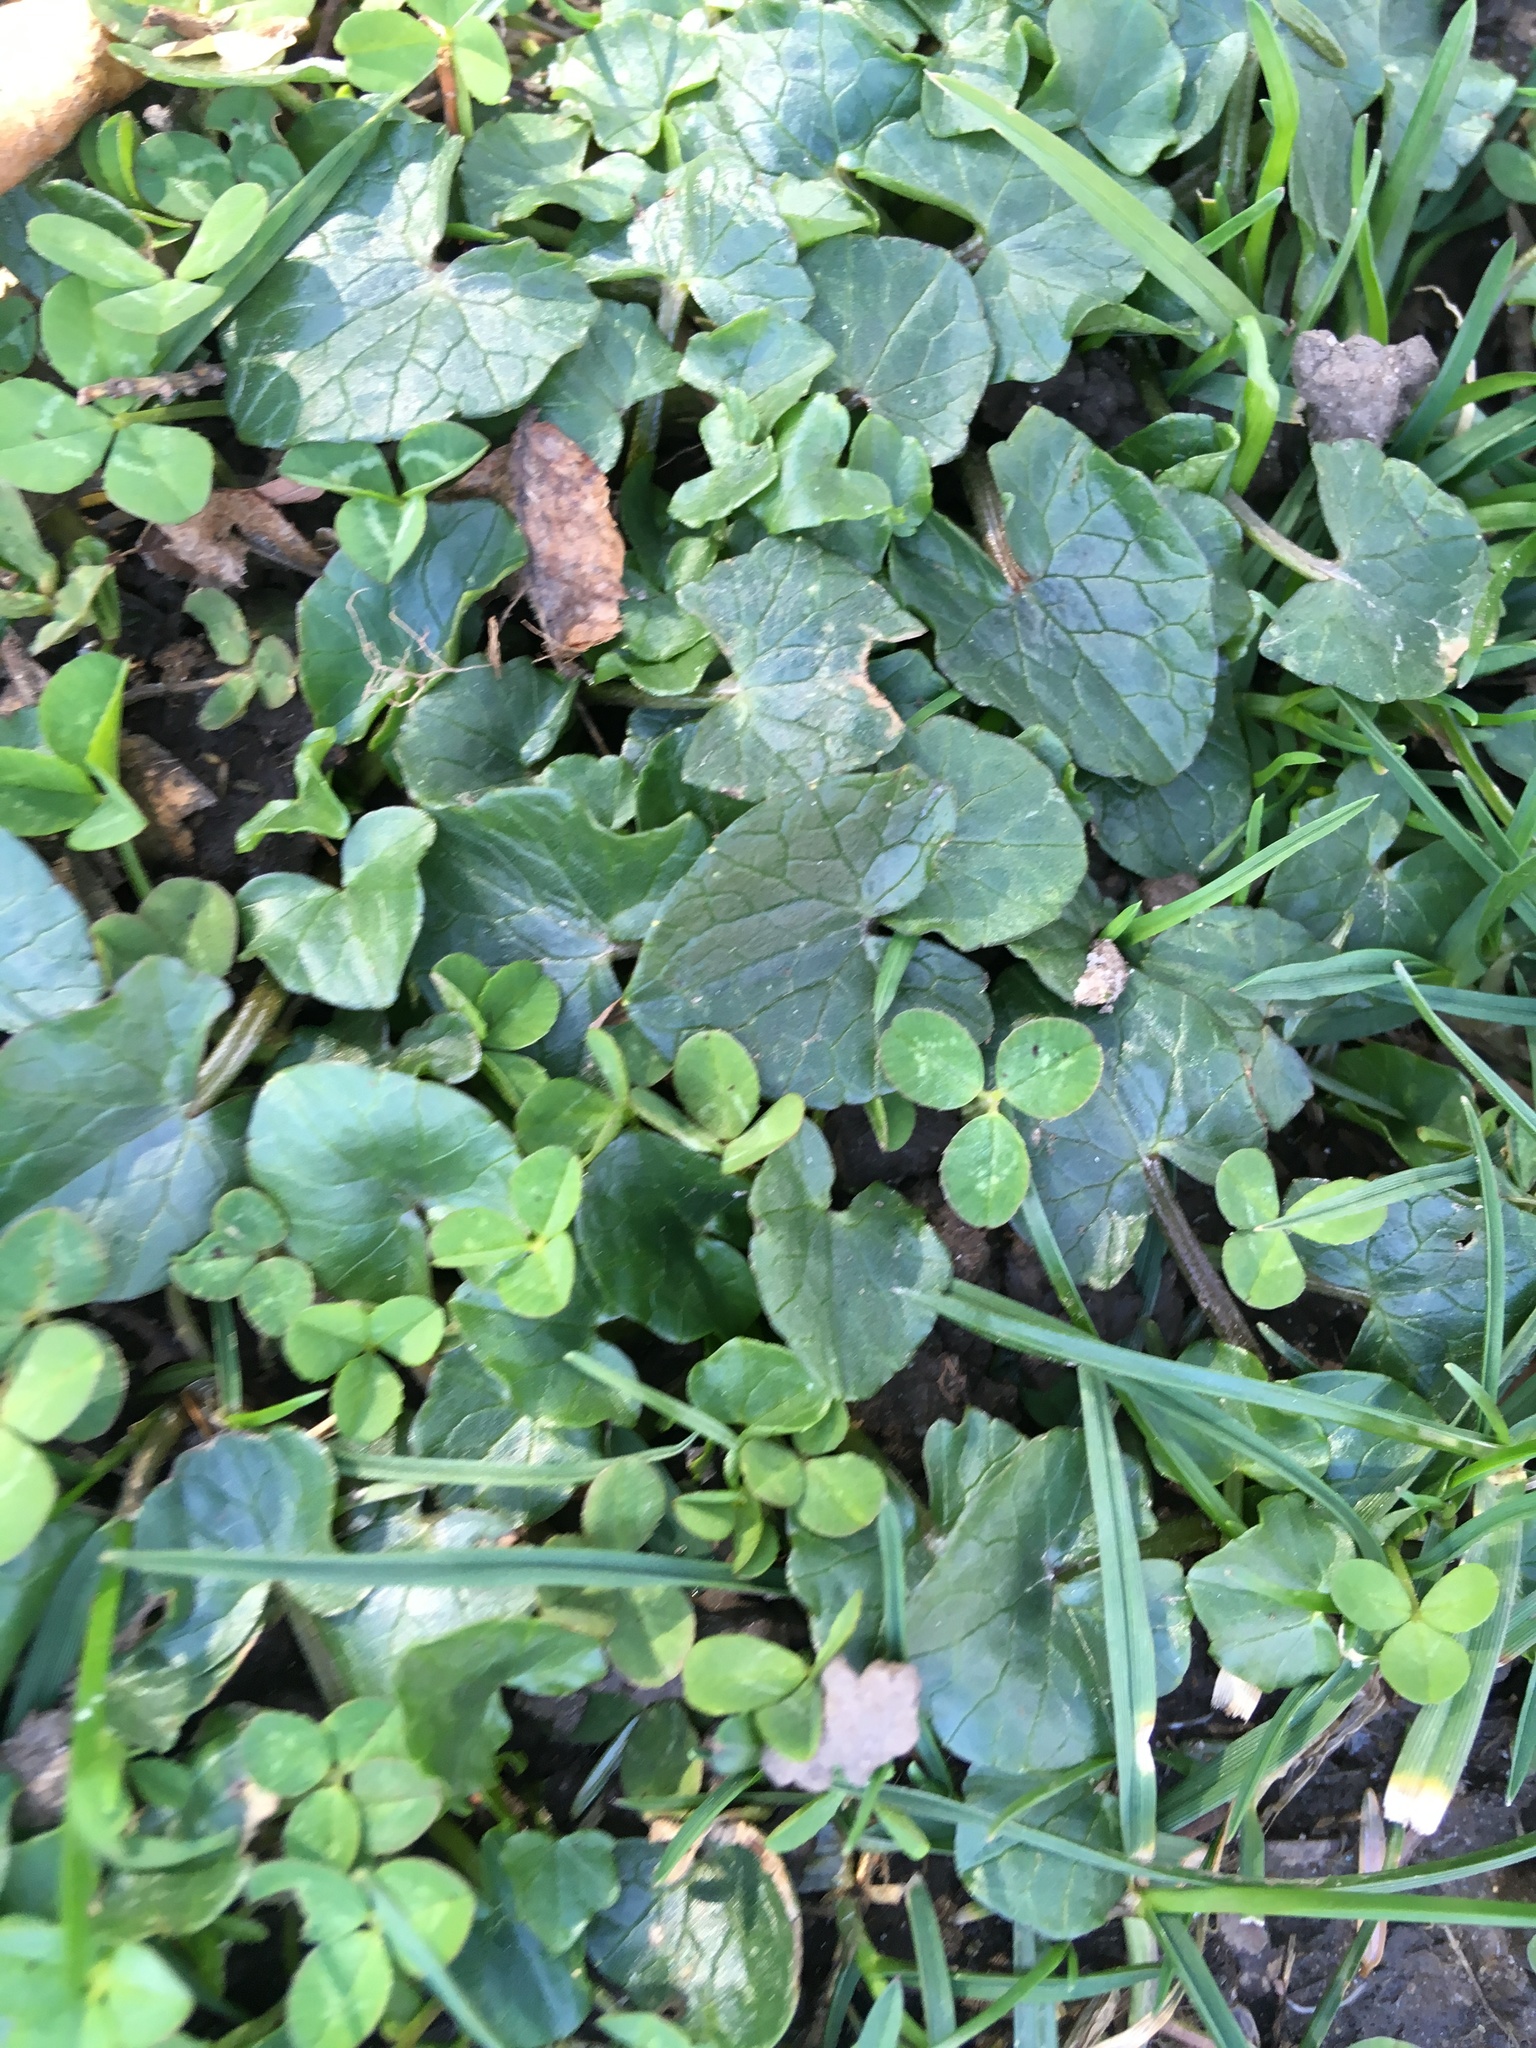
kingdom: Plantae
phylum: Tracheophyta
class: Magnoliopsida
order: Ranunculales
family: Ranunculaceae
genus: Ficaria
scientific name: Ficaria verna
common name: Lesser celandine
